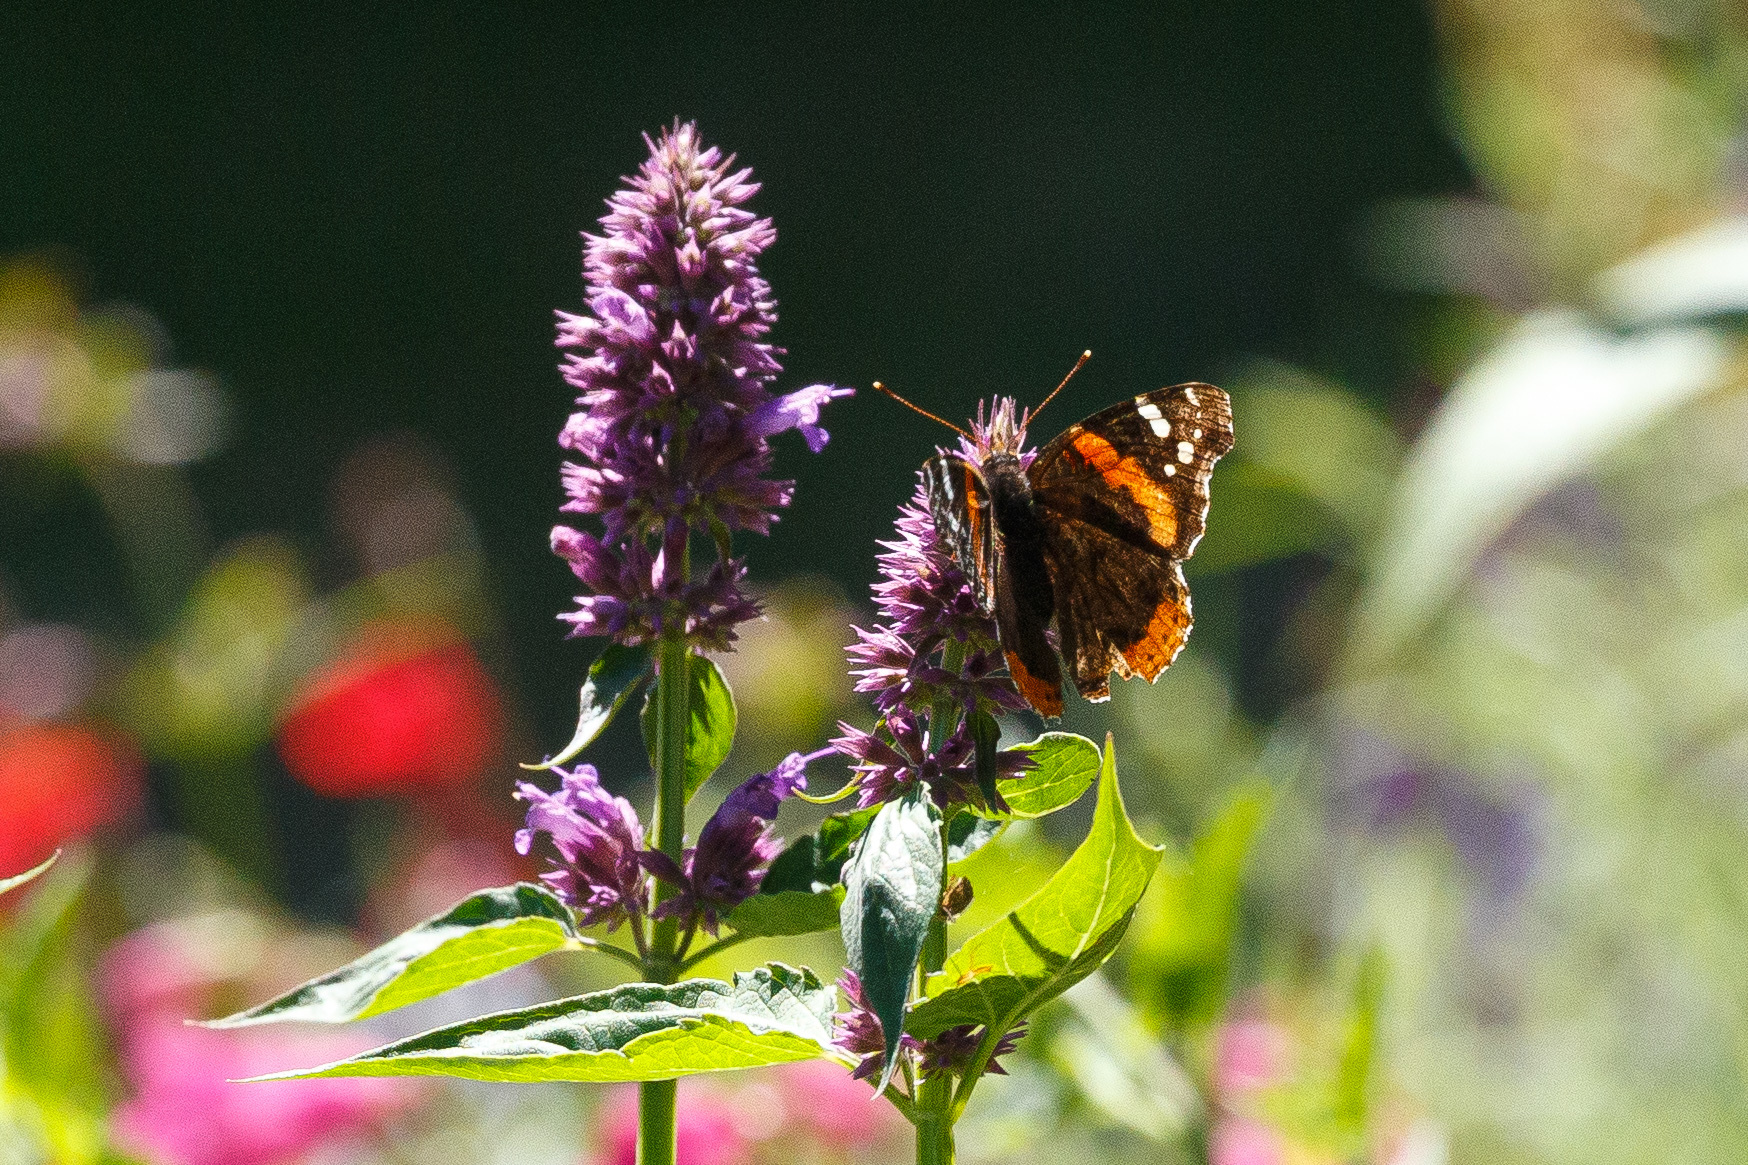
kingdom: Animalia
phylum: Arthropoda
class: Insecta
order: Lepidoptera
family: Nymphalidae
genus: Vanessa
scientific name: Vanessa atalanta
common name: Red admiral
